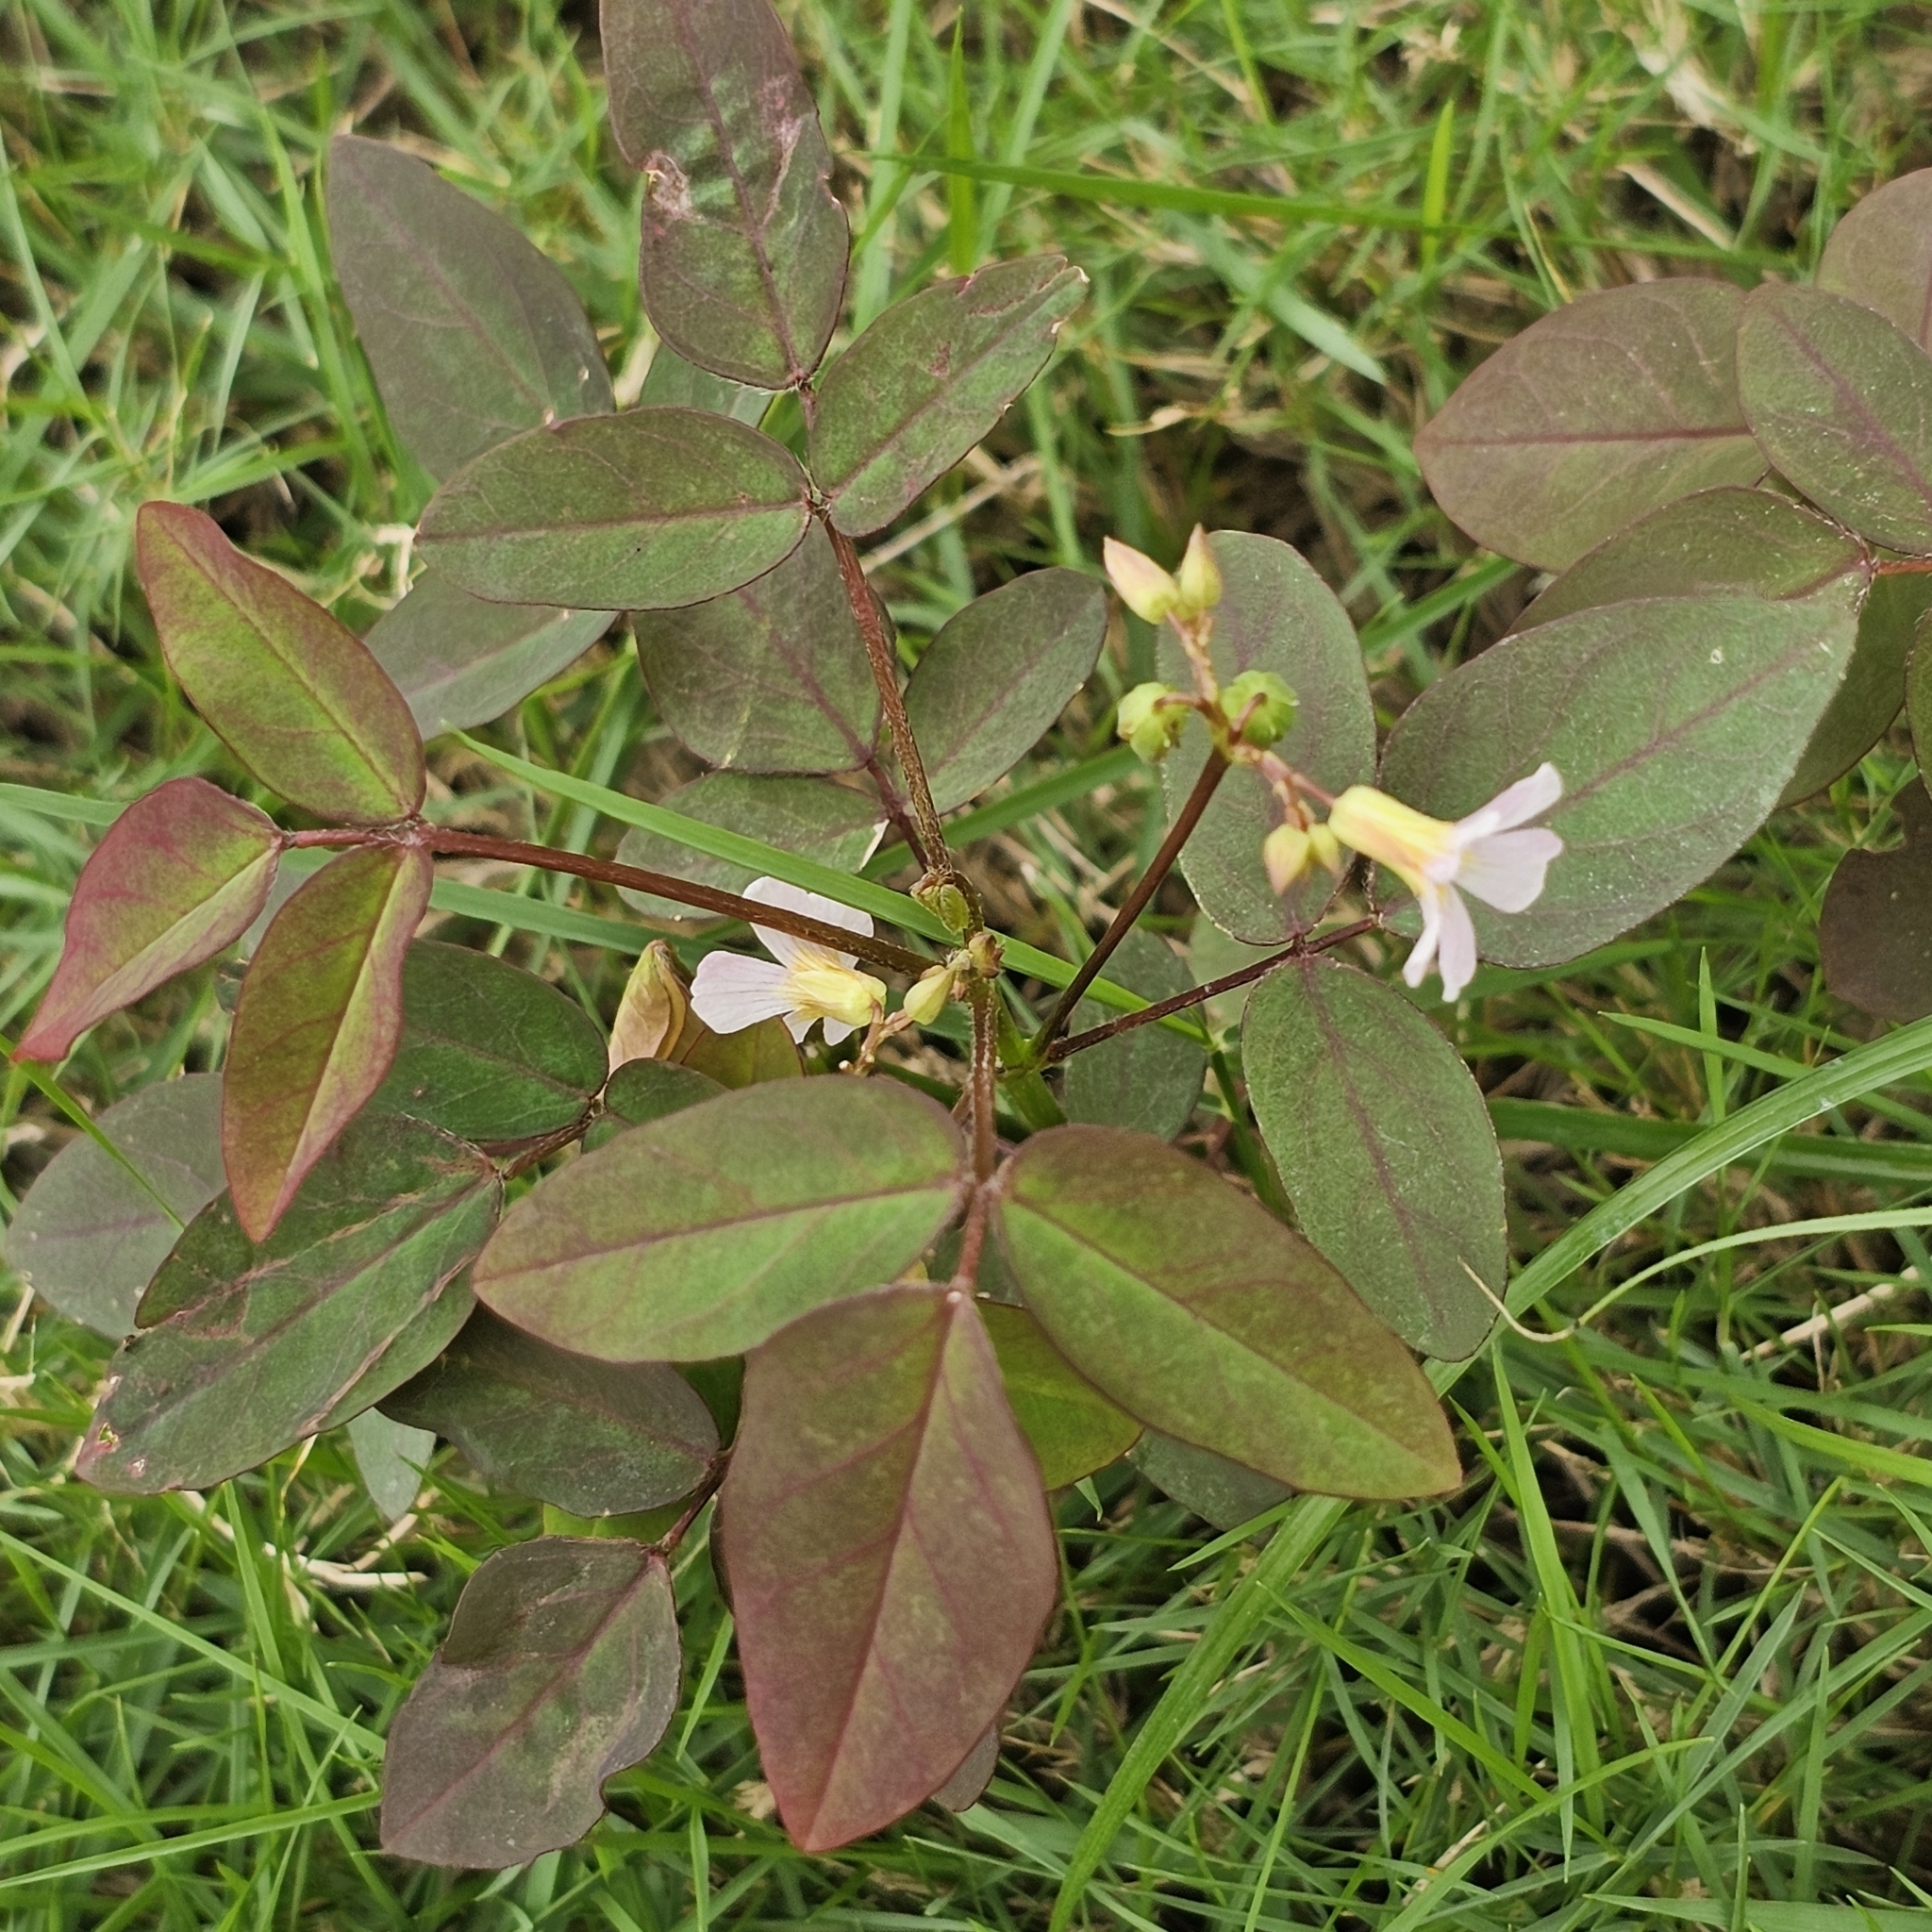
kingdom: Plantae
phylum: Tracheophyta
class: Magnoliopsida
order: Oxalidales
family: Oxalidaceae
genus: Oxalis
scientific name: Oxalis barrelieri
